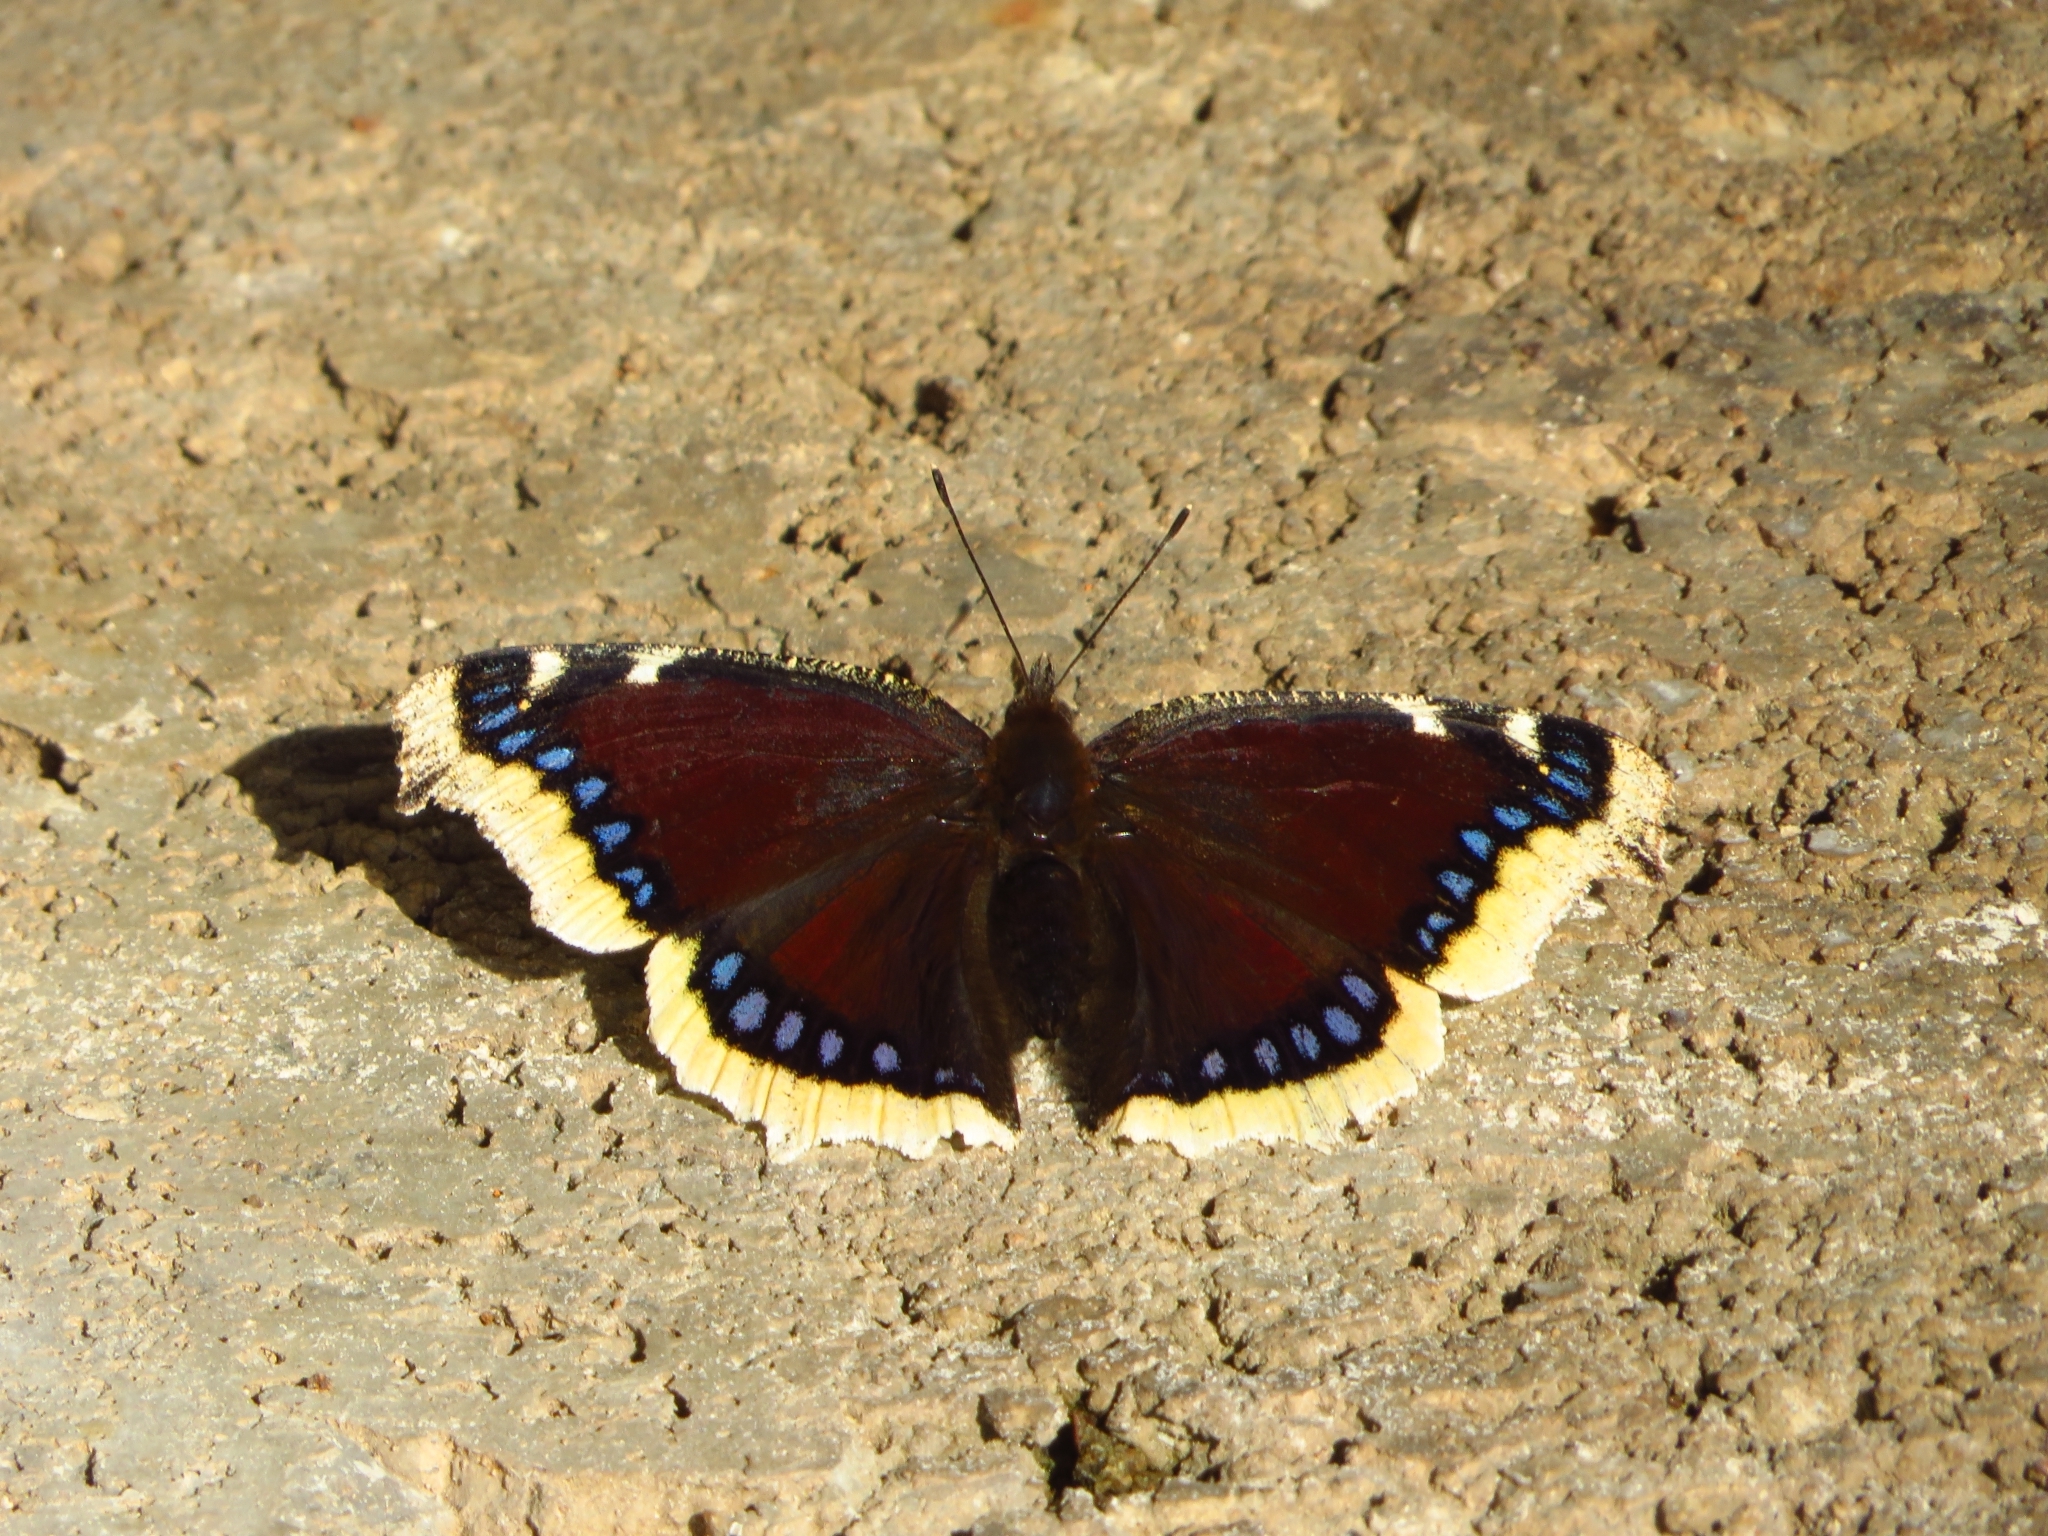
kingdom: Animalia
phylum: Arthropoda
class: Insecta
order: Lepidoptera
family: Nymphalidae
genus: Nymphalis
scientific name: Nymphalis antiopa
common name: Camberwell beauty
